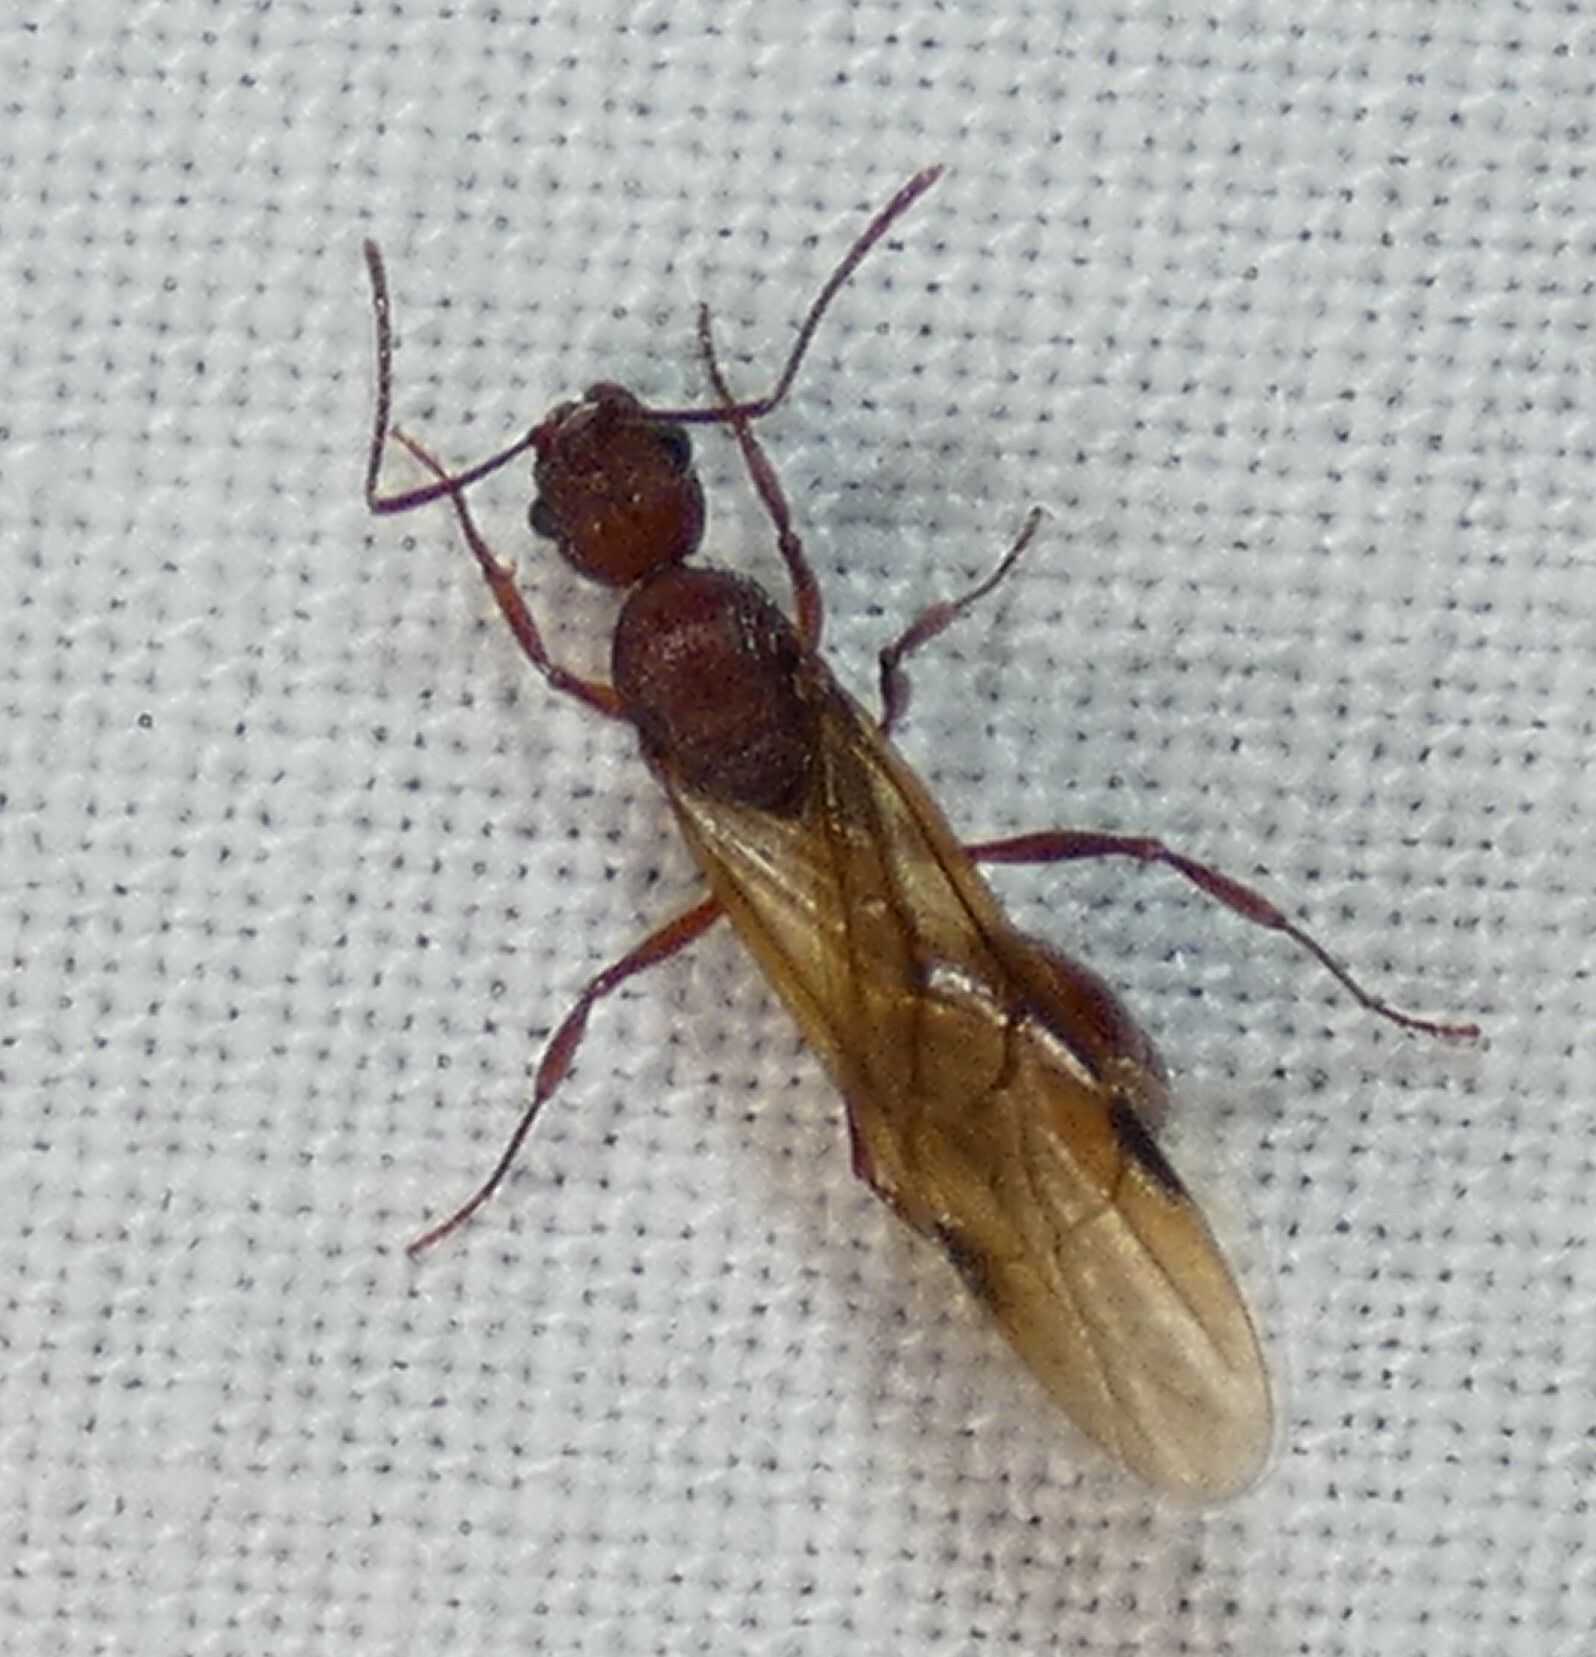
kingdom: Animalia
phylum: Arthropoda
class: Insecta
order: Hymenoptera
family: Formicidae
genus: Aphaenogaster
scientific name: Aphaenogaster ashmeadi
